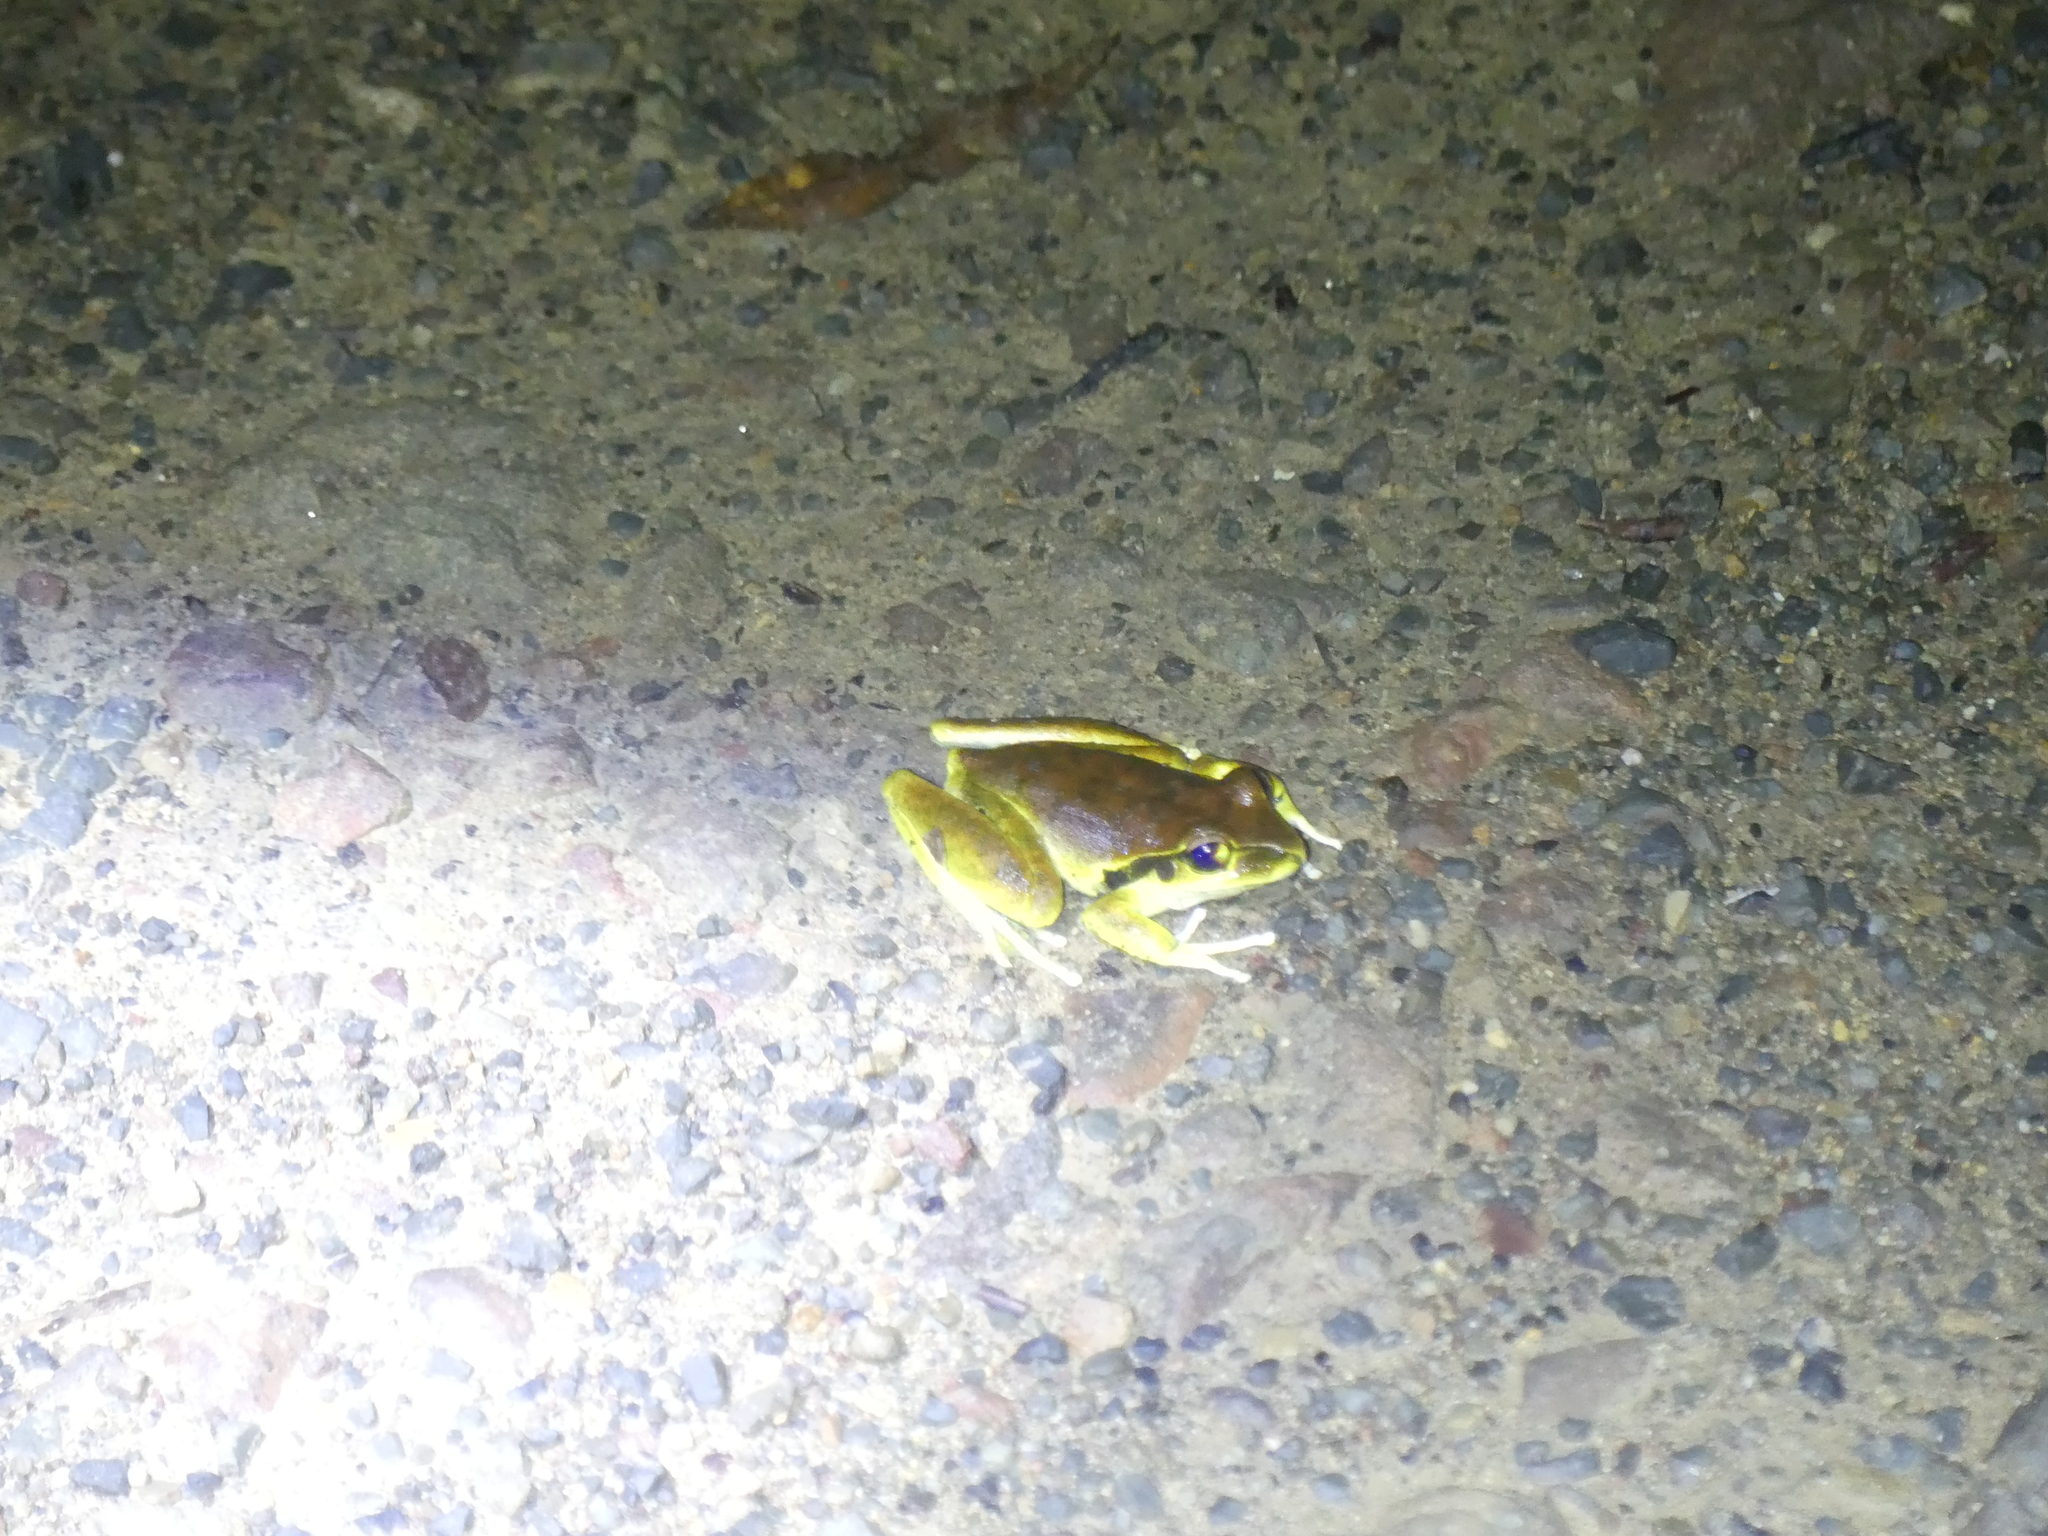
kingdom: Animalia
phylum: Chordata
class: Amphibia
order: Anura
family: Pelodryadidae
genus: Ranoidea
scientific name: Ranoidea wilcoxii
